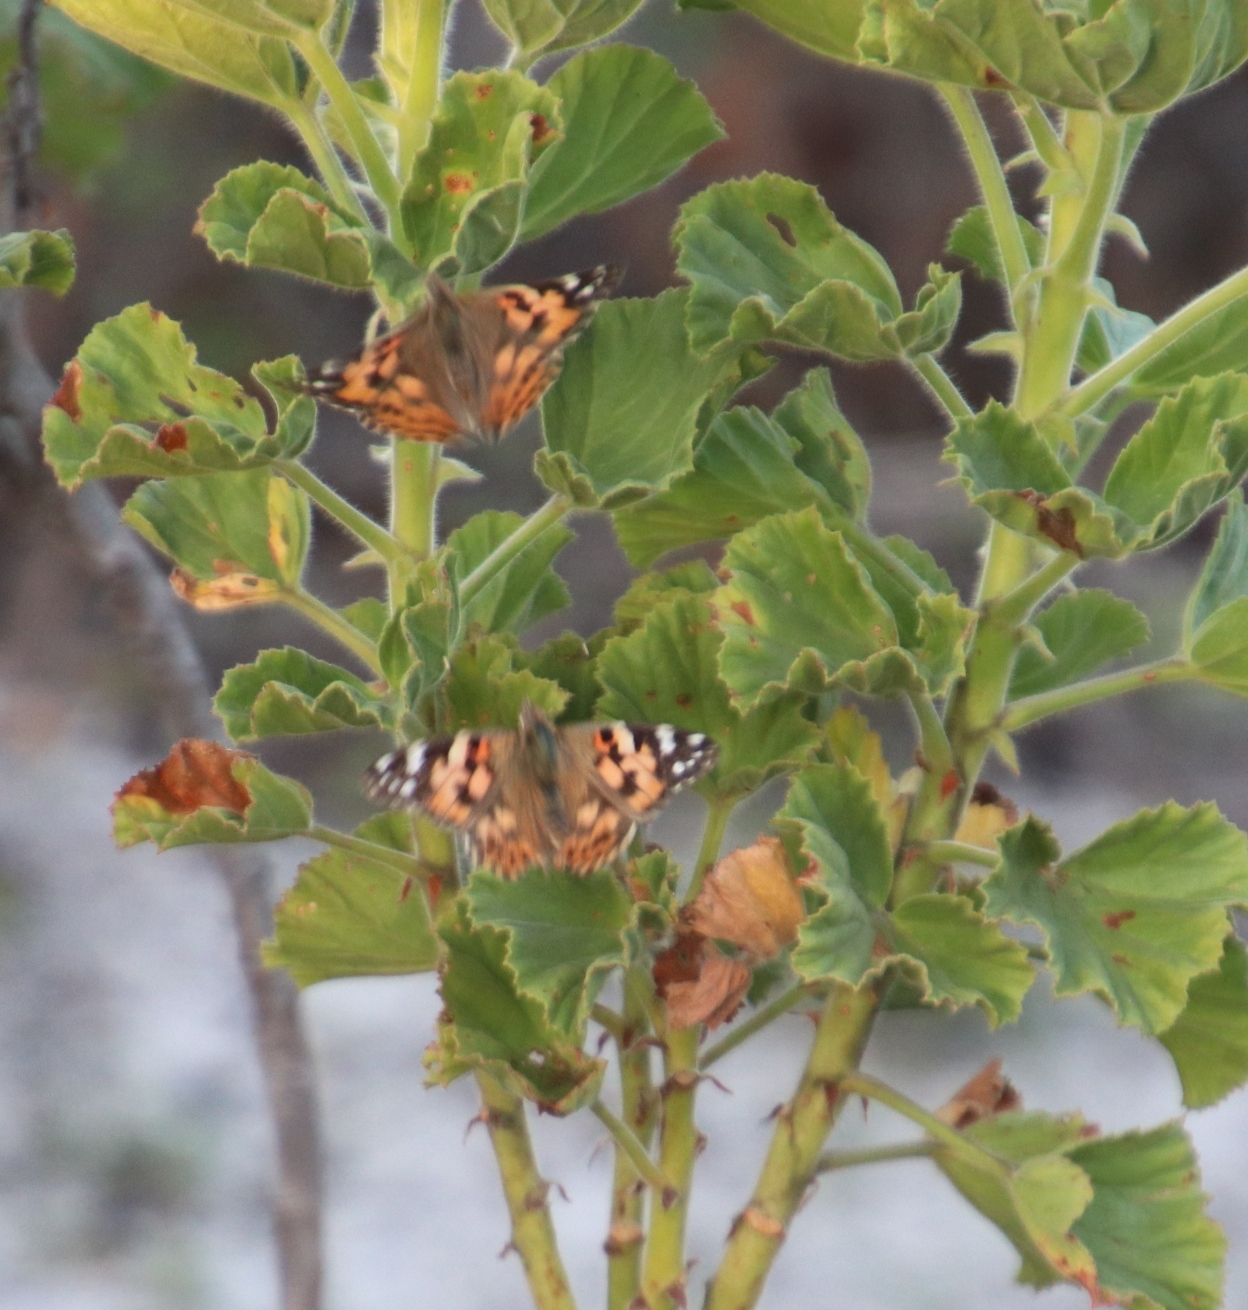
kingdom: Animalia
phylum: Arthropoda
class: Insecta
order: Lepidoptera
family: Nymphalidae
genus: Vanessa
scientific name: Vanessa cardui
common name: Painted lady
